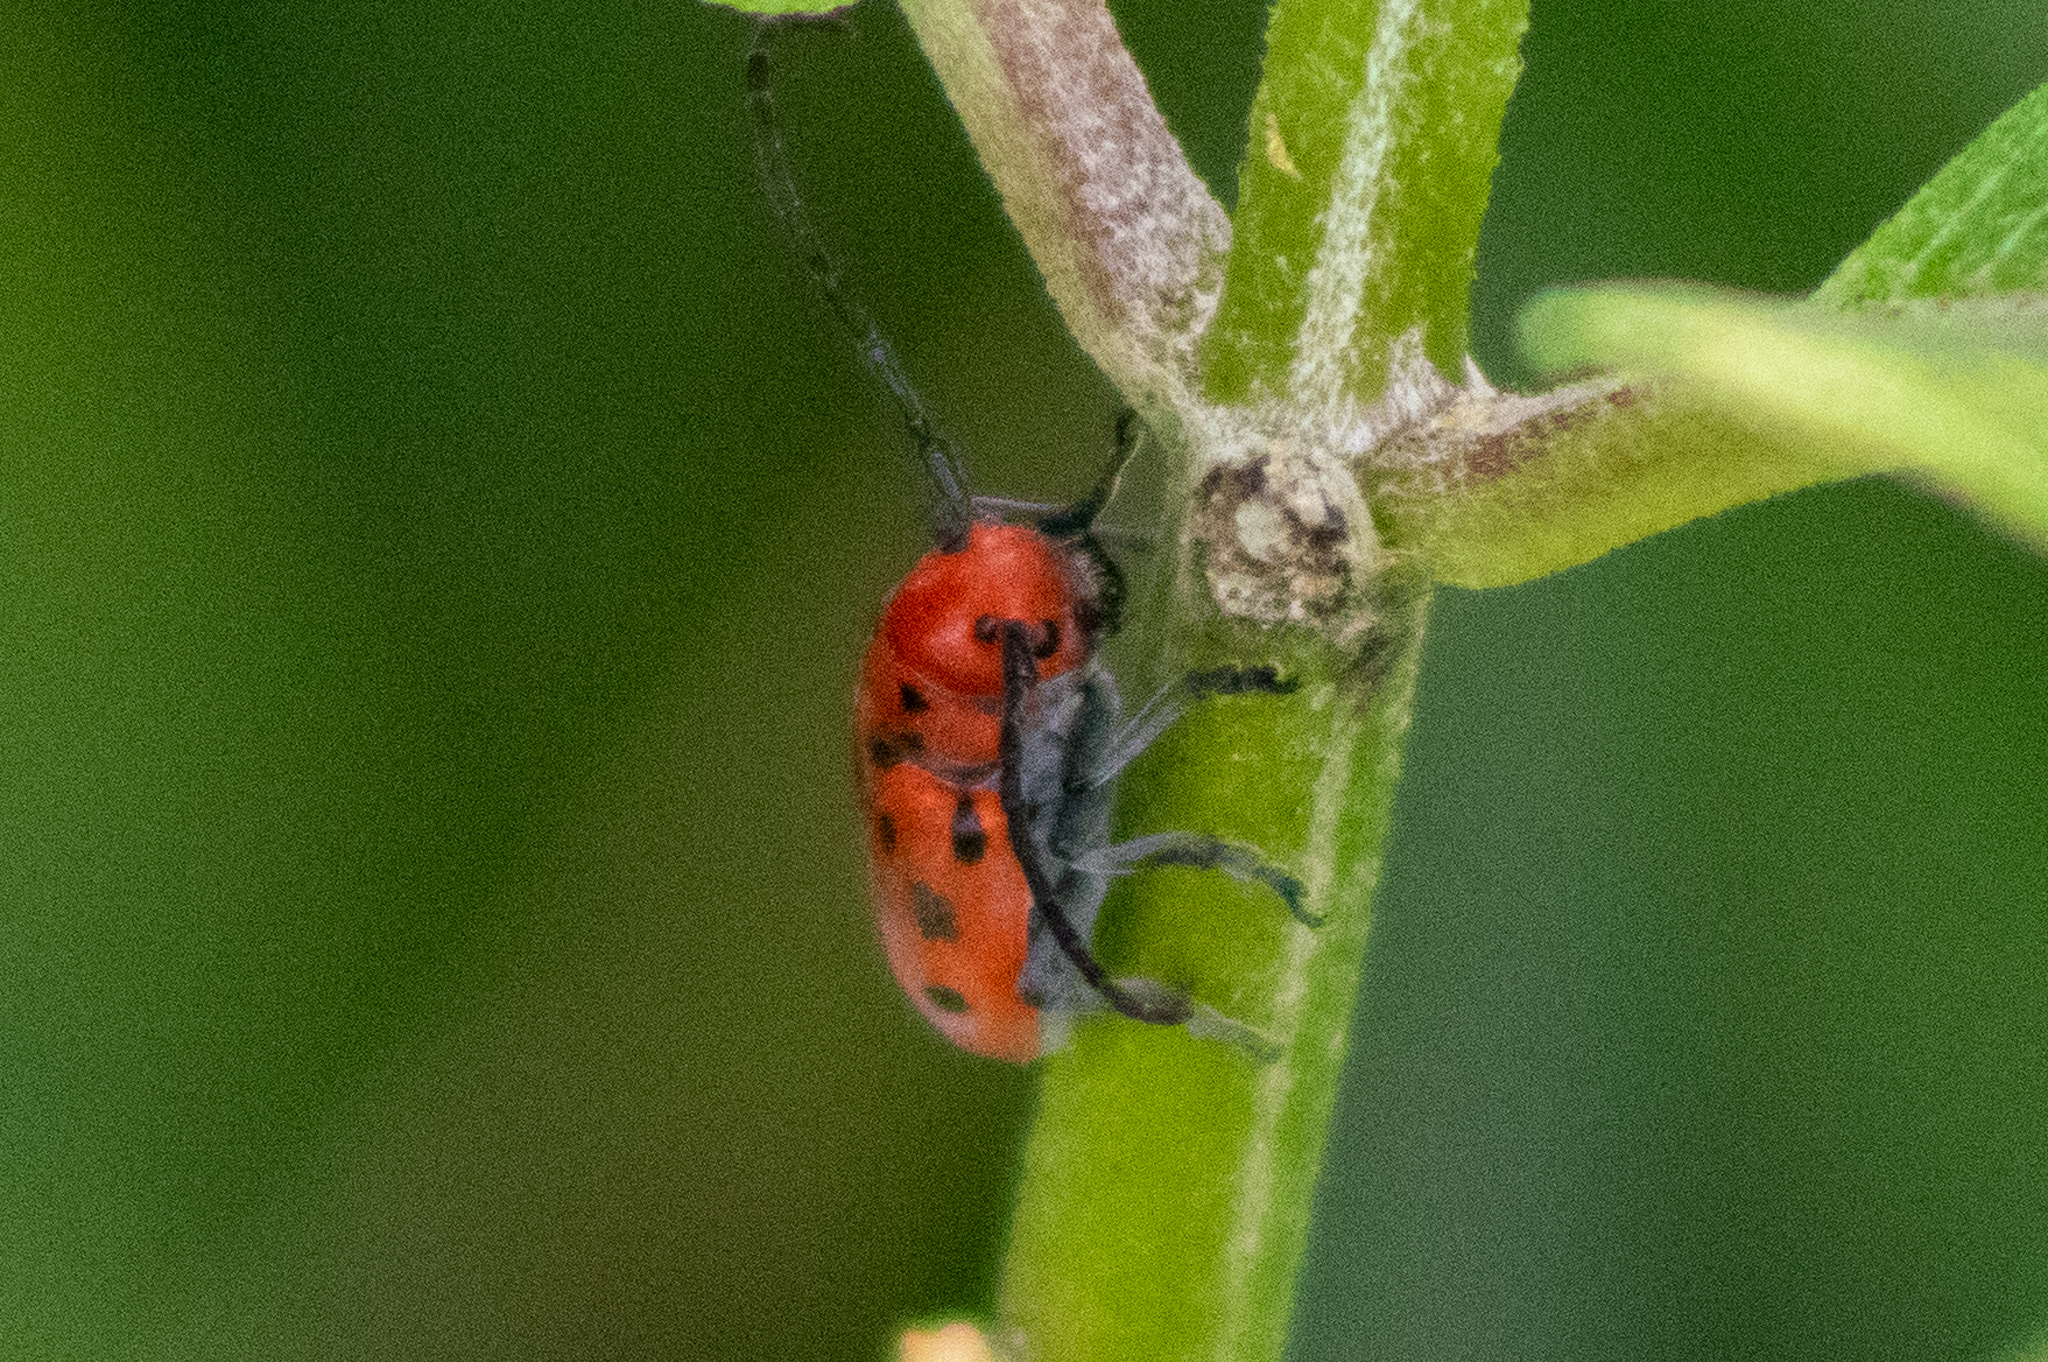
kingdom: Animalia
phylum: Arthropoda
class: Insecta
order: Coleoptera
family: Cerambycidae
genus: Tetraopes
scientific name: Tetraopes tetrophthalmus
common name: Red milkweed beetle
